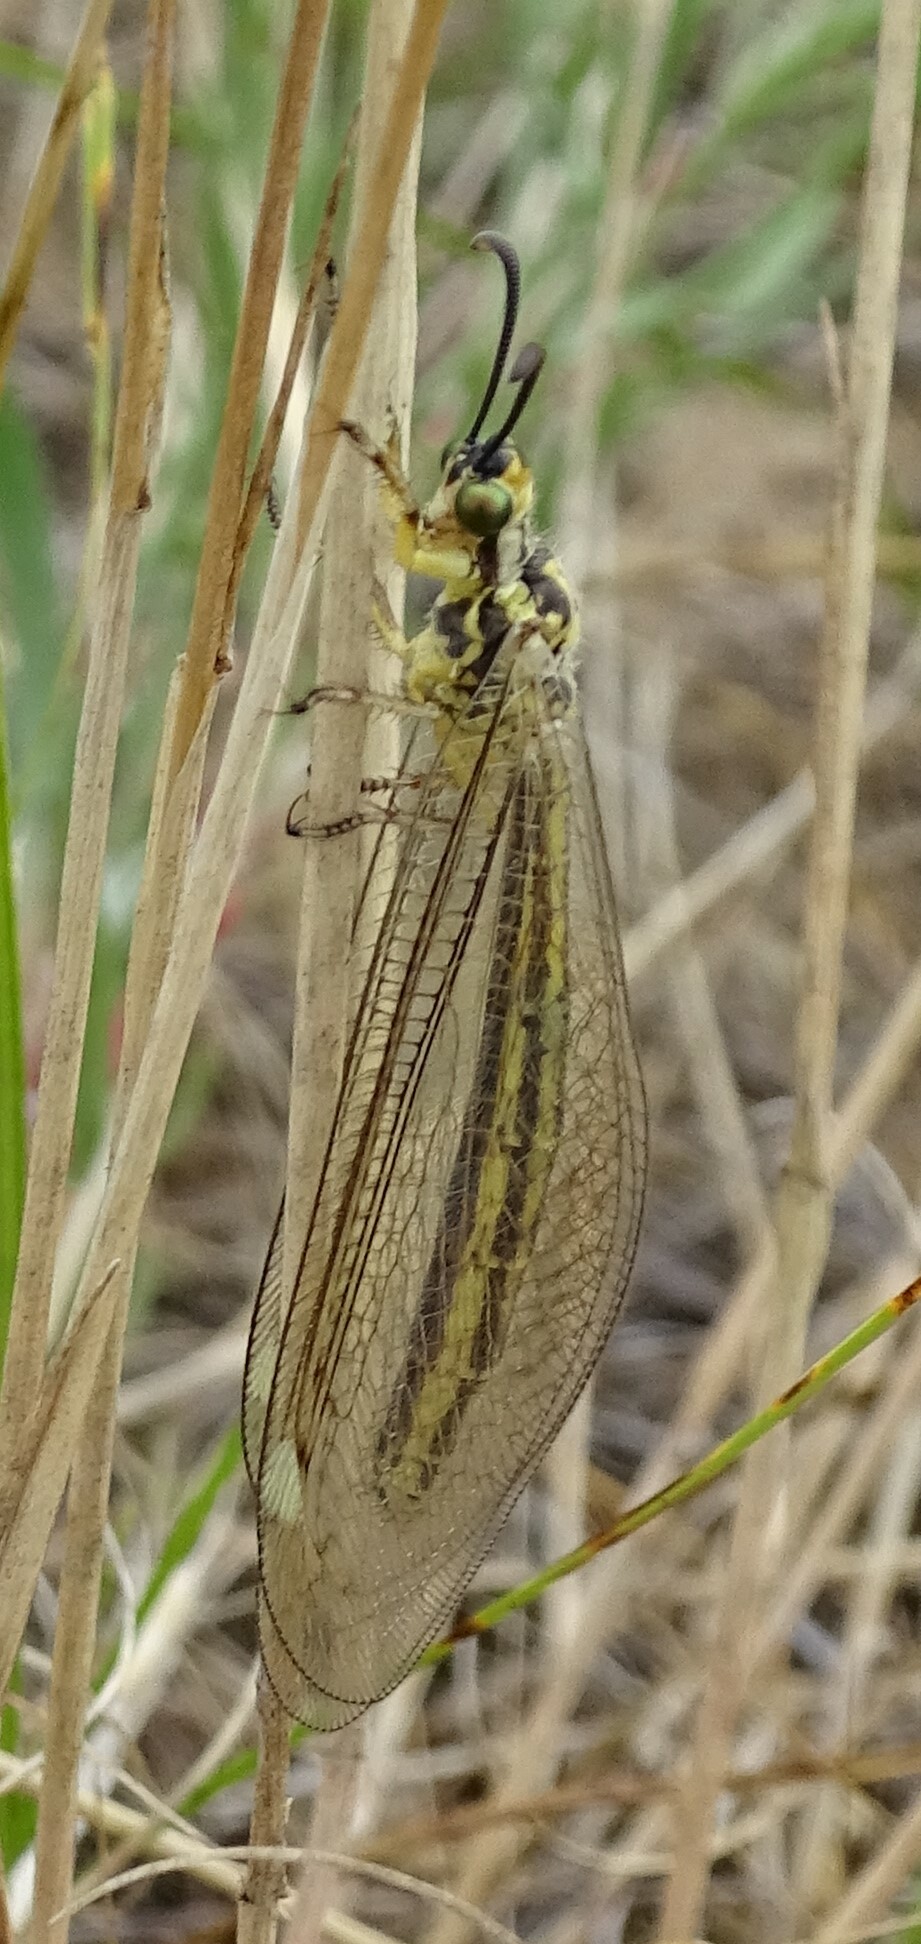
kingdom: Animalia
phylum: Arthropoda
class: Insecta
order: Neuroptera
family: Myrmeleontidae
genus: Myrmecaelurus
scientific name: Myrmecaelurus trigrammus
